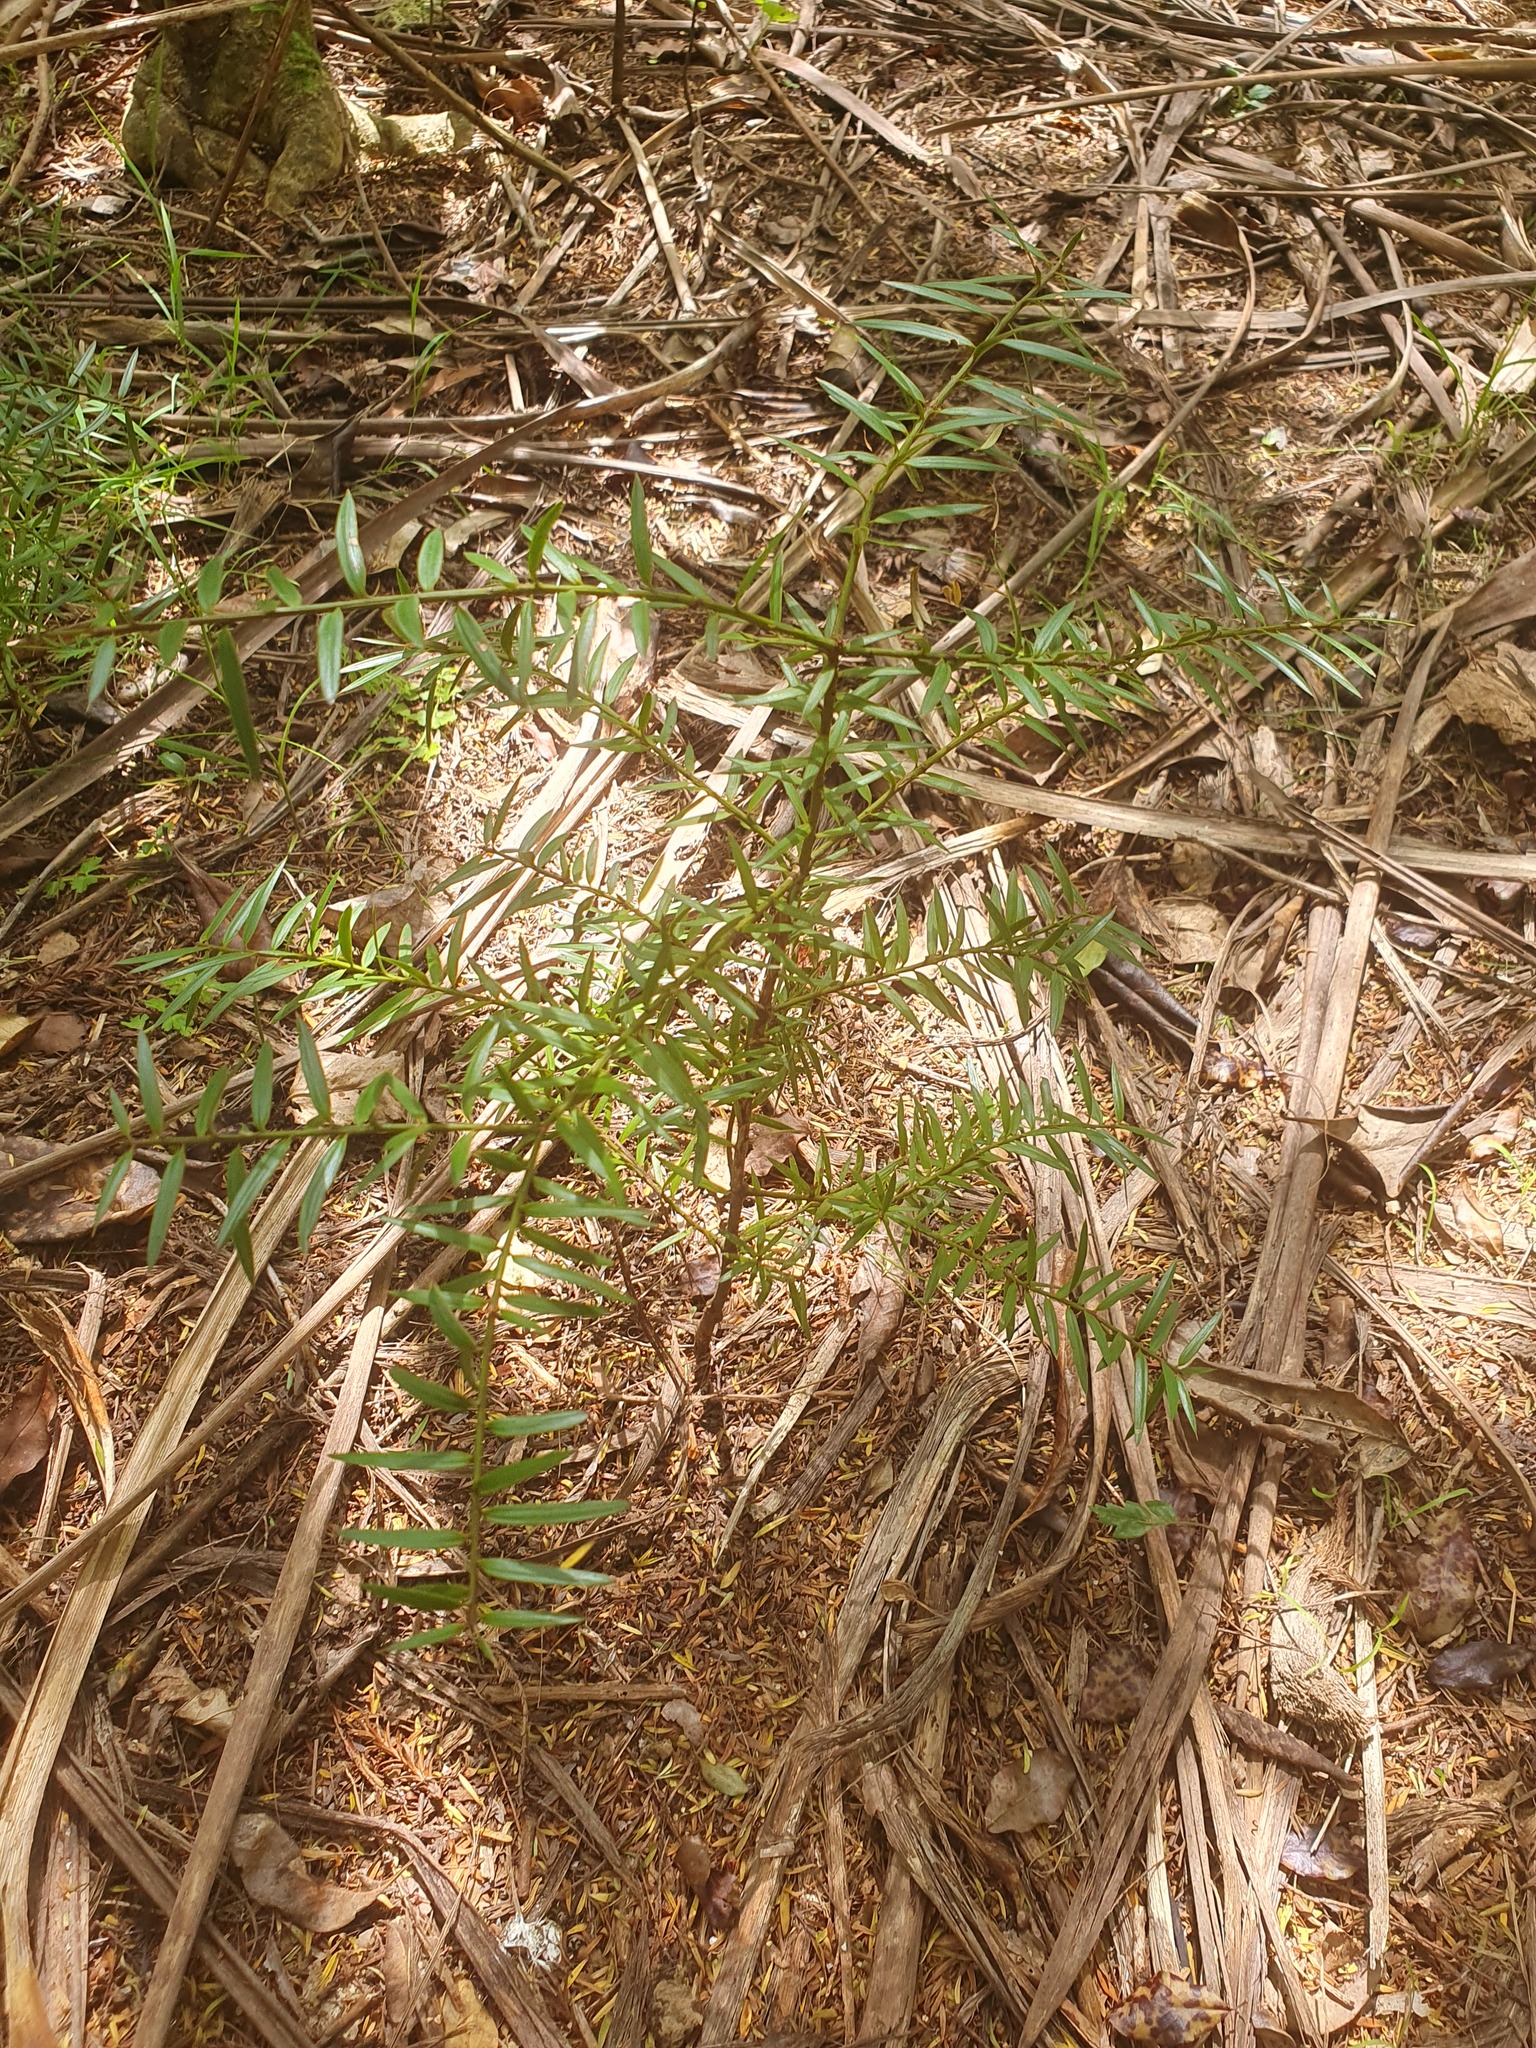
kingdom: Plantae
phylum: Tracheophyta
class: Pinopsida
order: Pinales
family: Podocarpaceae
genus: Podocarpus
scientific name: Podocarpus totara
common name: Totara
